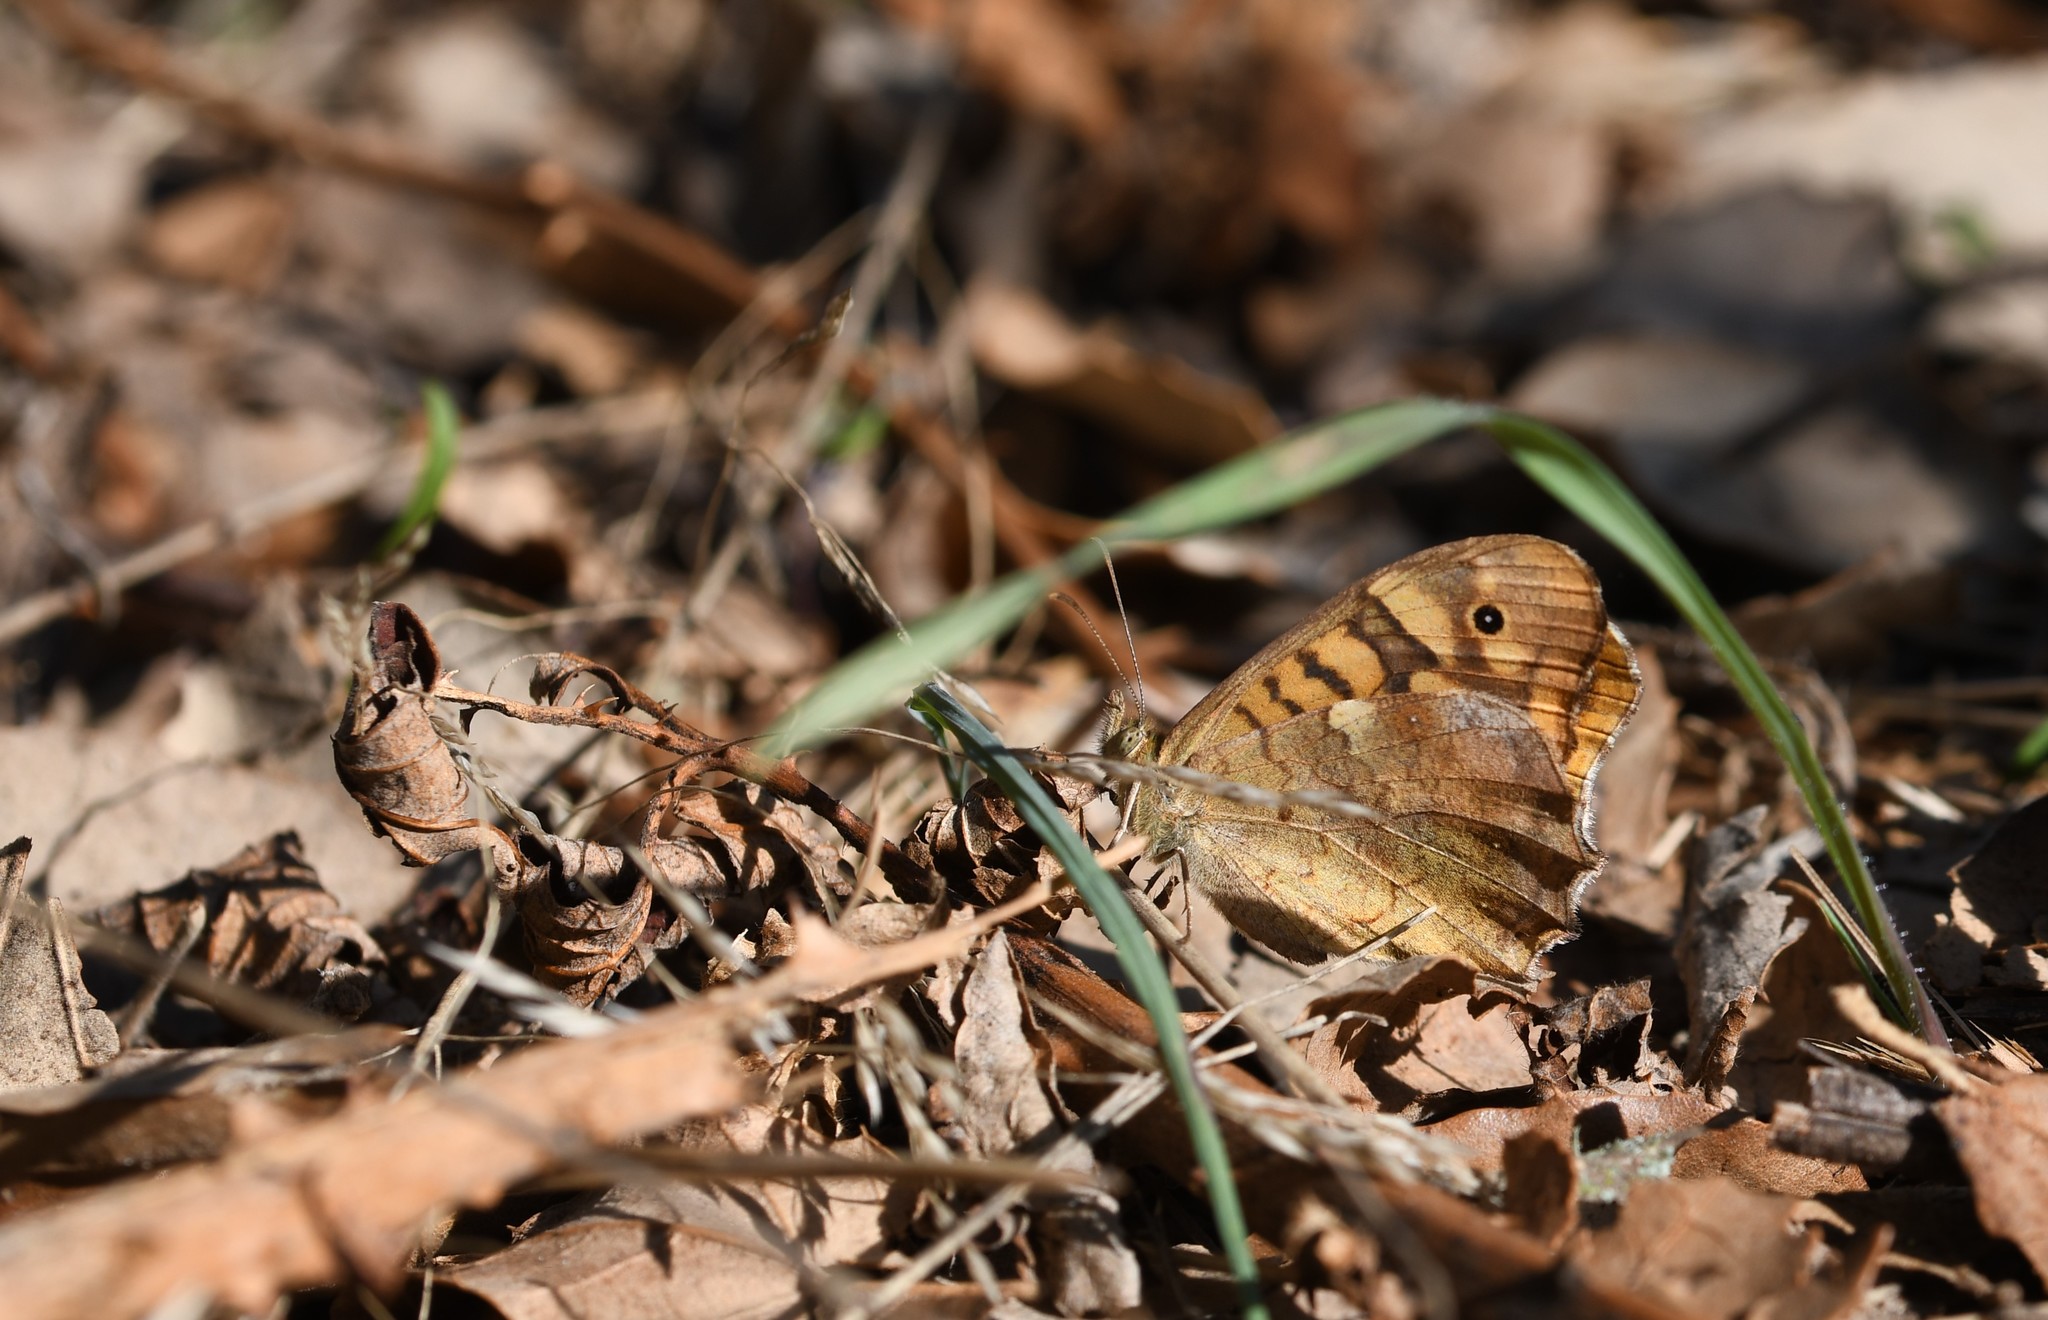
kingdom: Animalia
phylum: Arthropoda
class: Insecta
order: Lepidoptera
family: Nymphalidae
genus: Pararge
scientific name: Pararge aegeria
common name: Speckled wood
